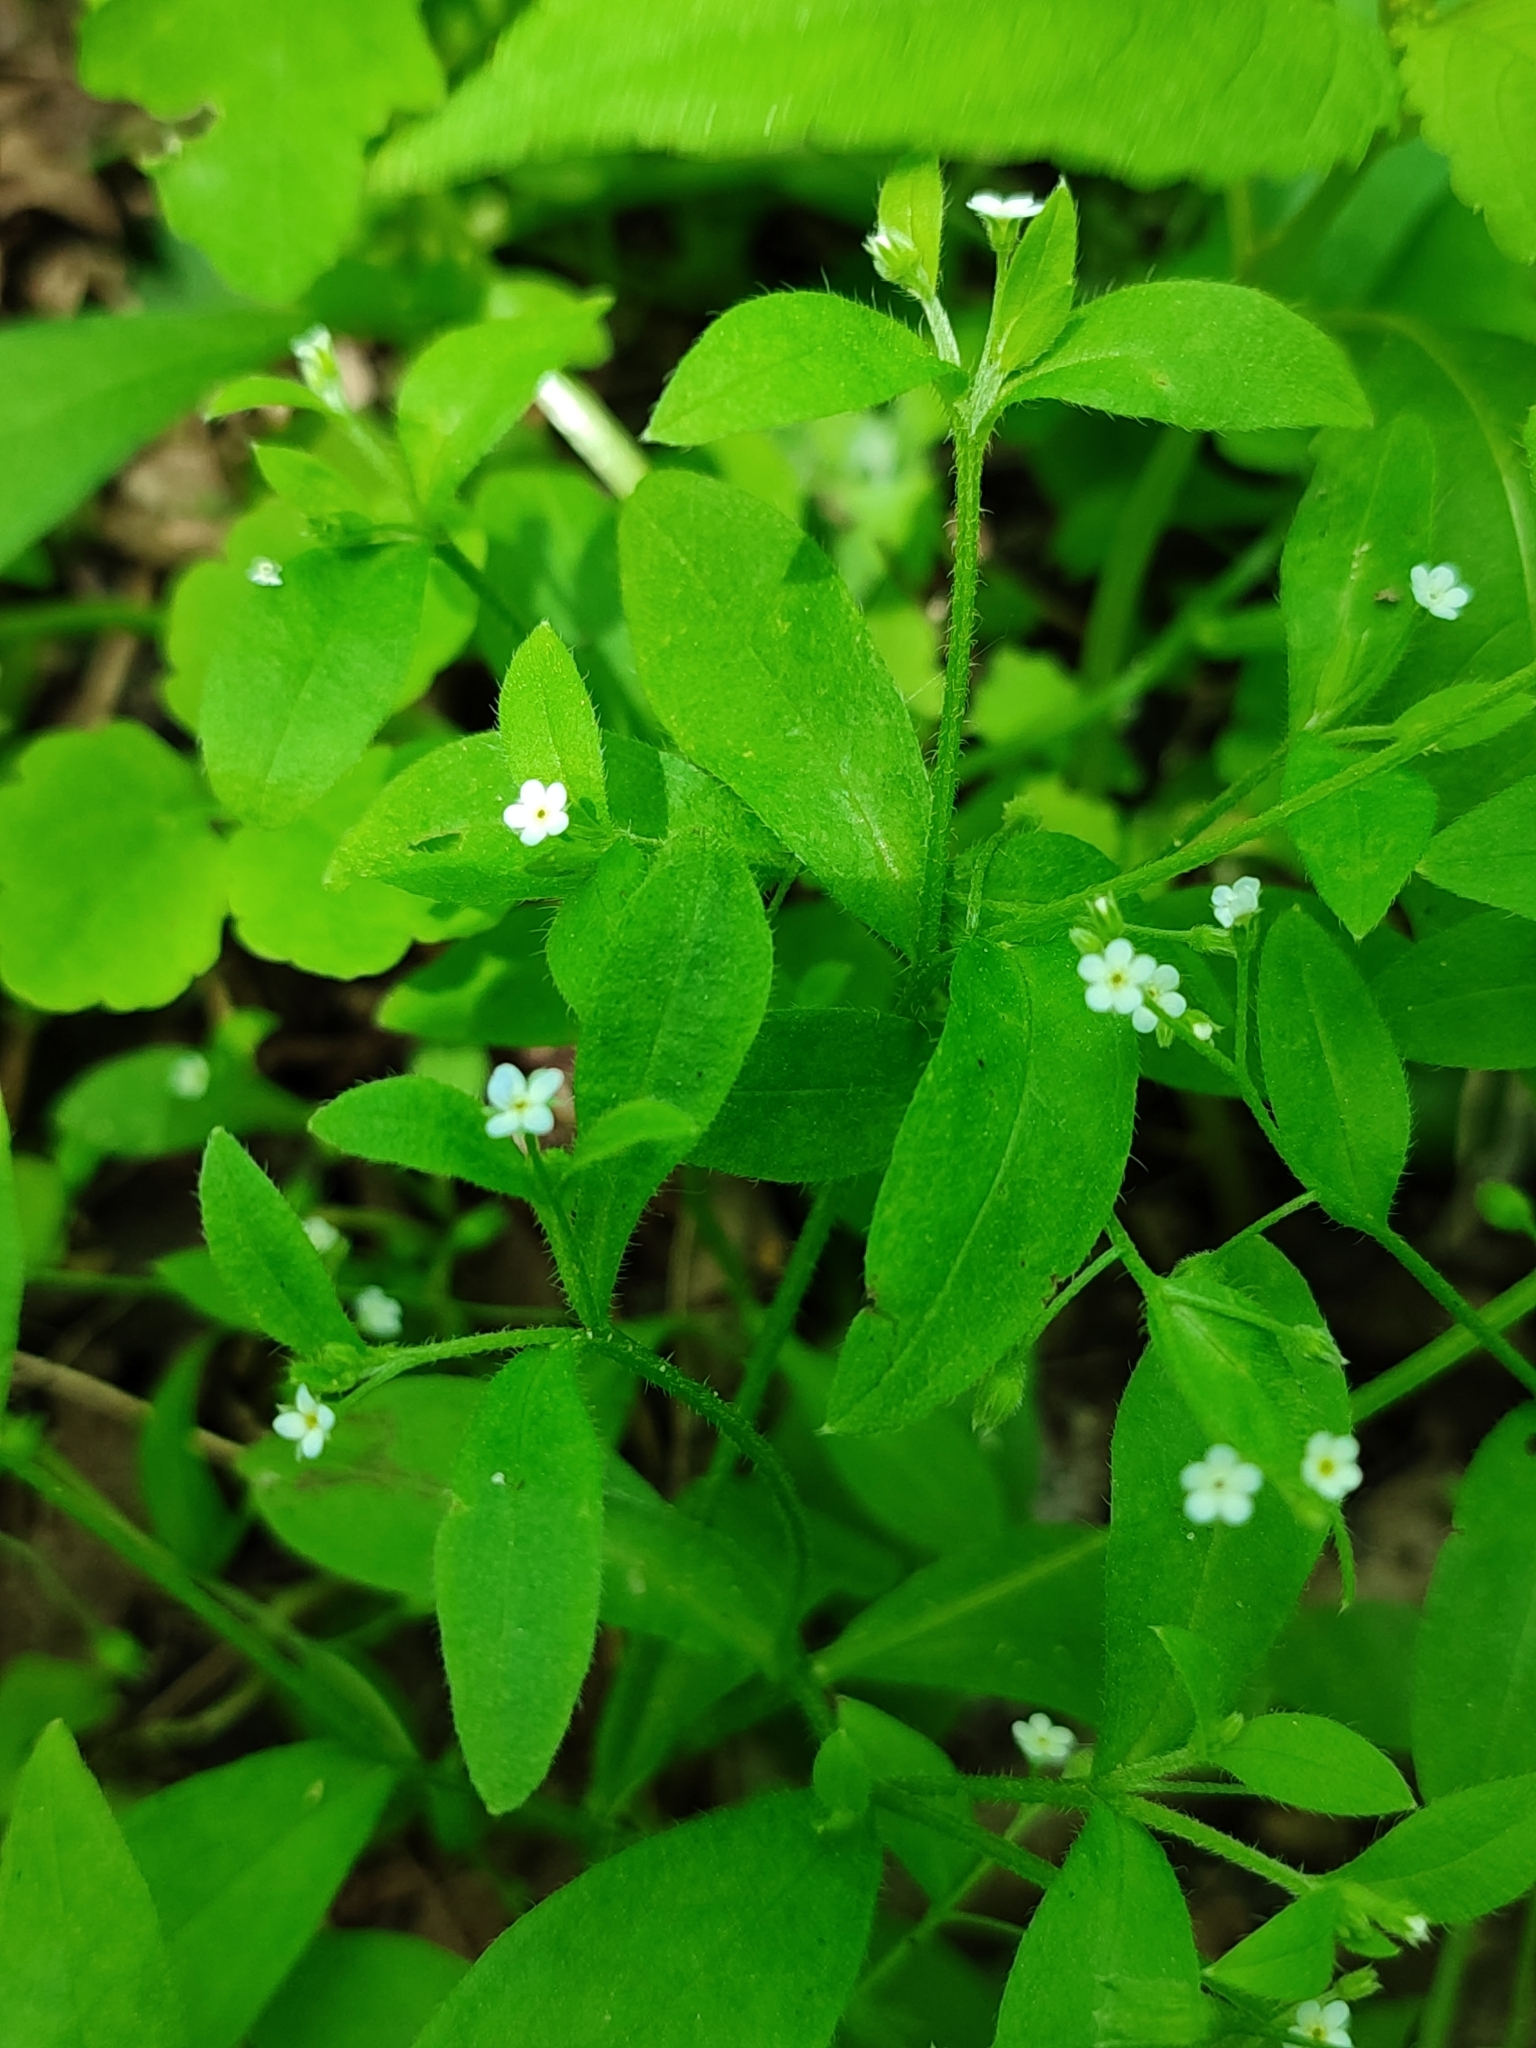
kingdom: Plantae
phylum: Tracheophyta
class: Magnoliopsida
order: Boraginales
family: Boraginaceae
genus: Myosotis
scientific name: Myosotis sparsiflora
